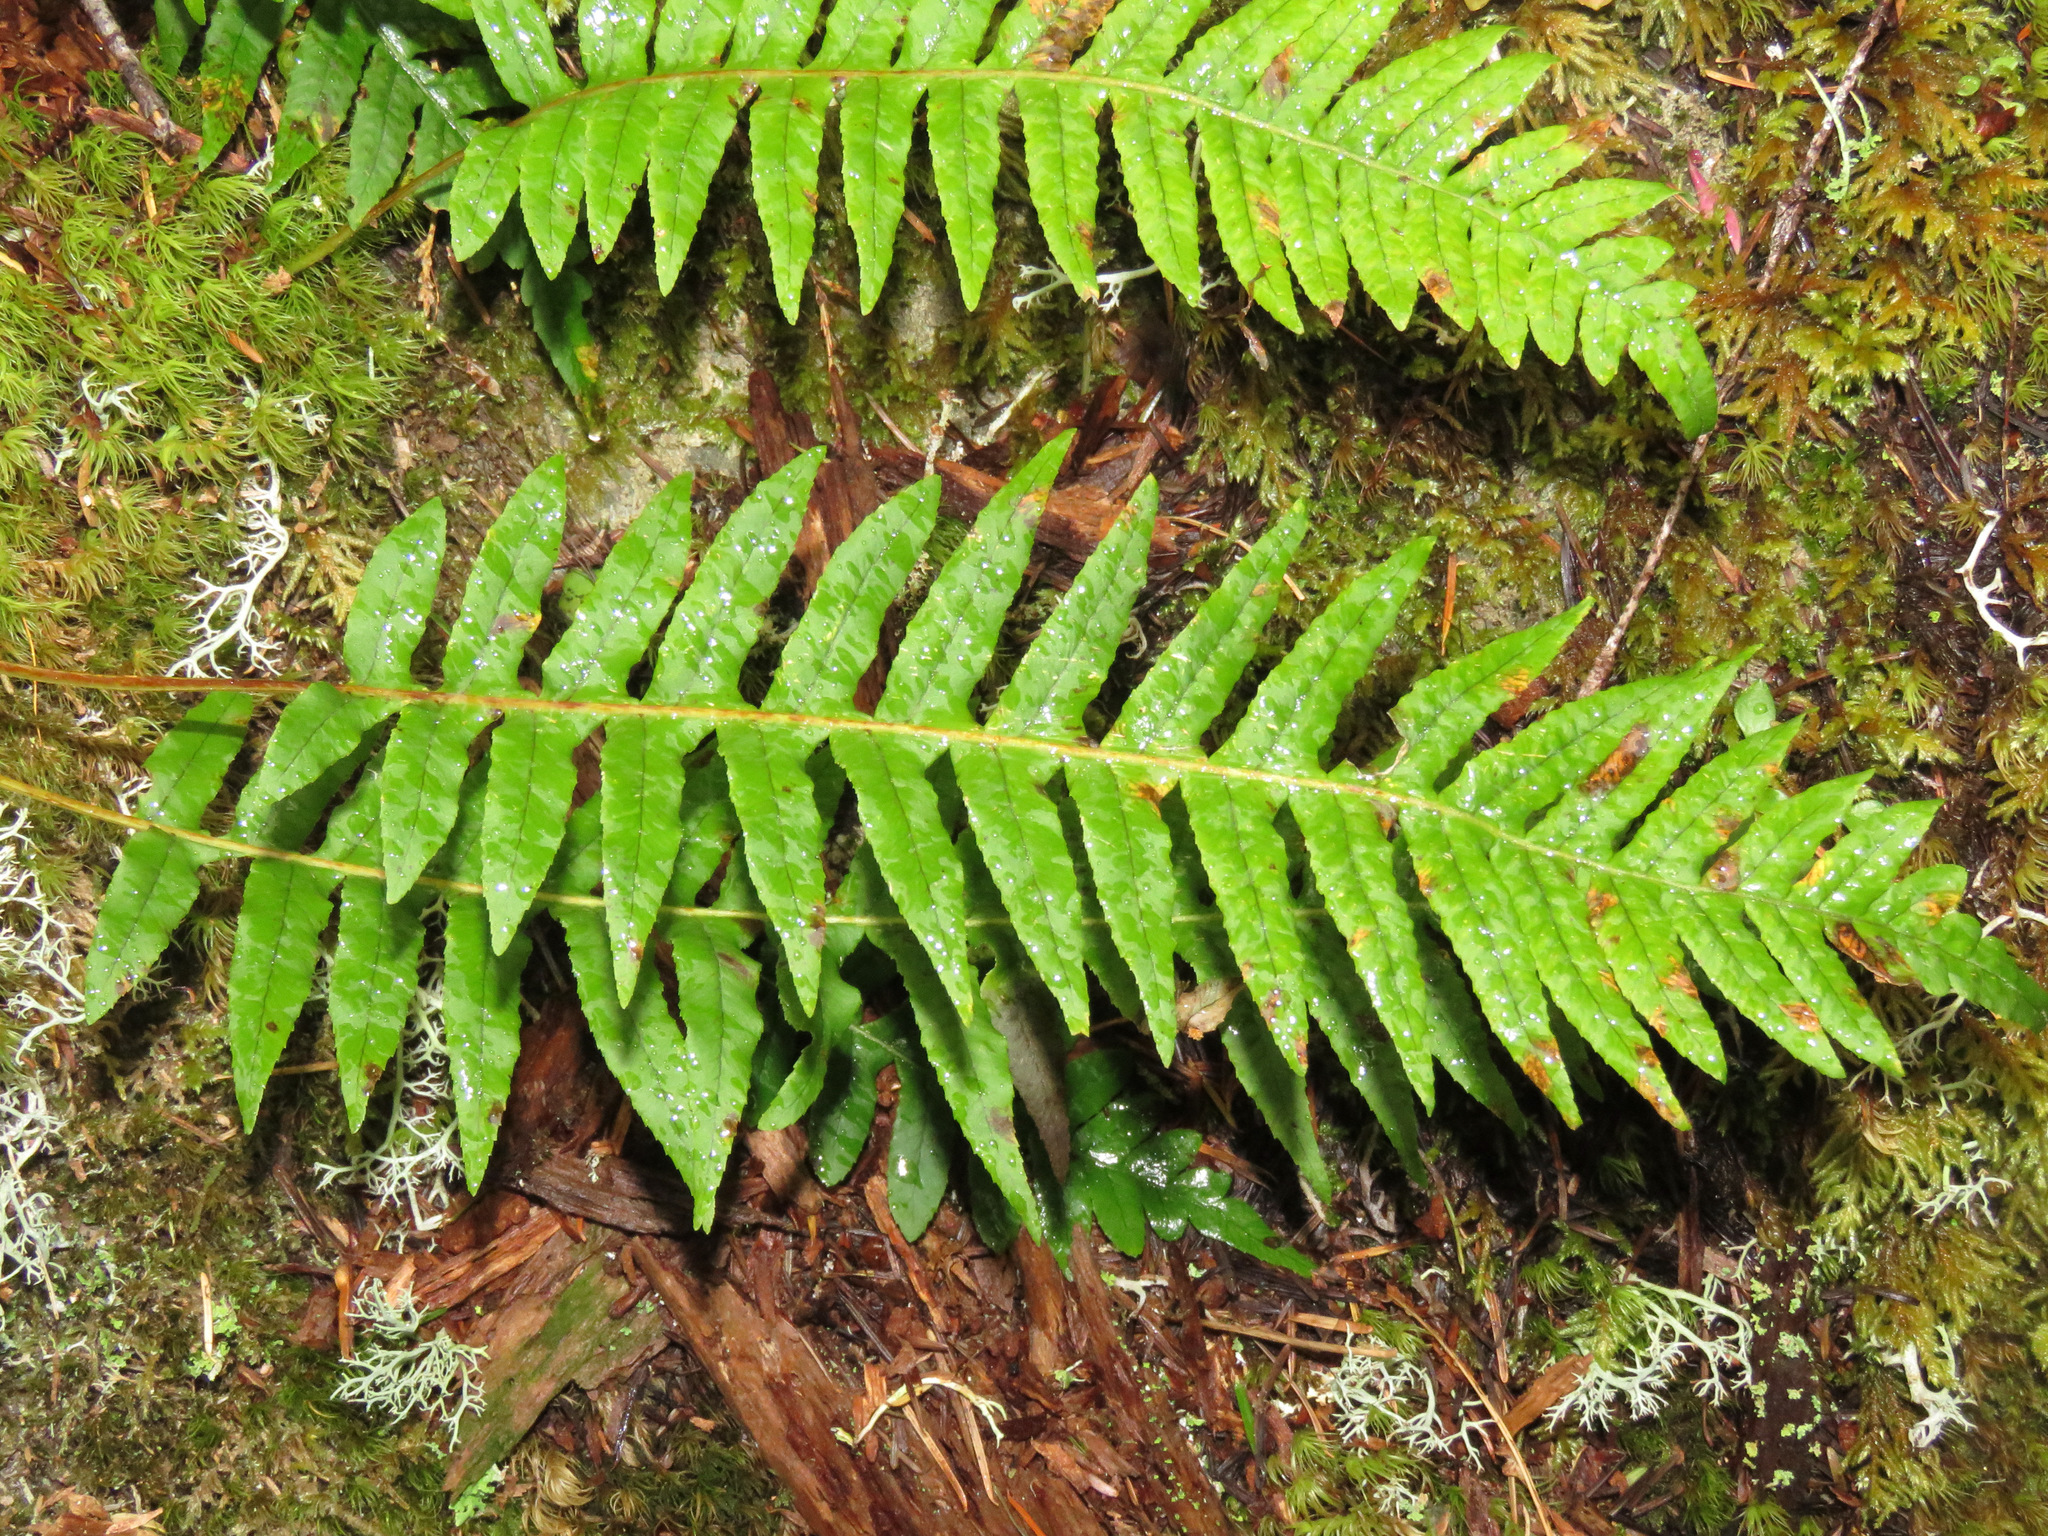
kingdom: Plantae
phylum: Tracheophyta
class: Polypodiopsida
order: Polypodiales
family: Polypodiaceae
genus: Polypodium
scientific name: Polypodium glycyrrhiza
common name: Licorice fern
